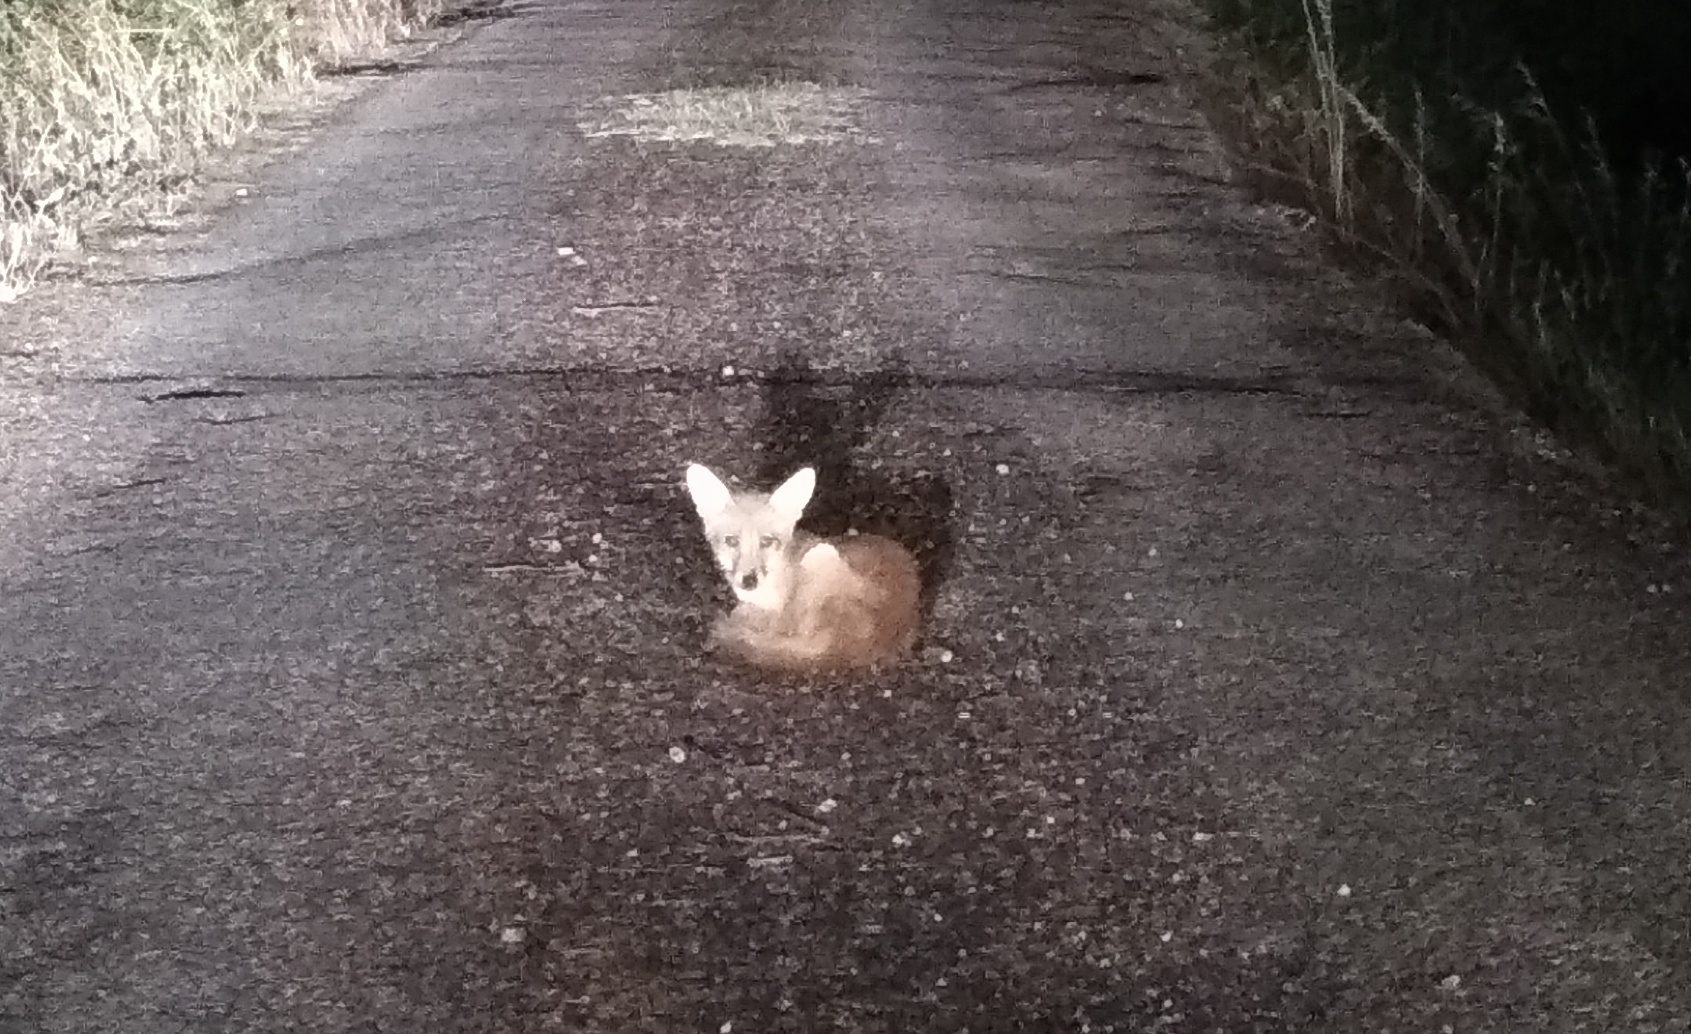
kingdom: Animalia
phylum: Chordata
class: Mammalia
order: Carnivora
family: Canidae
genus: Vulpes
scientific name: Vulpes vulpes
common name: Red fox
